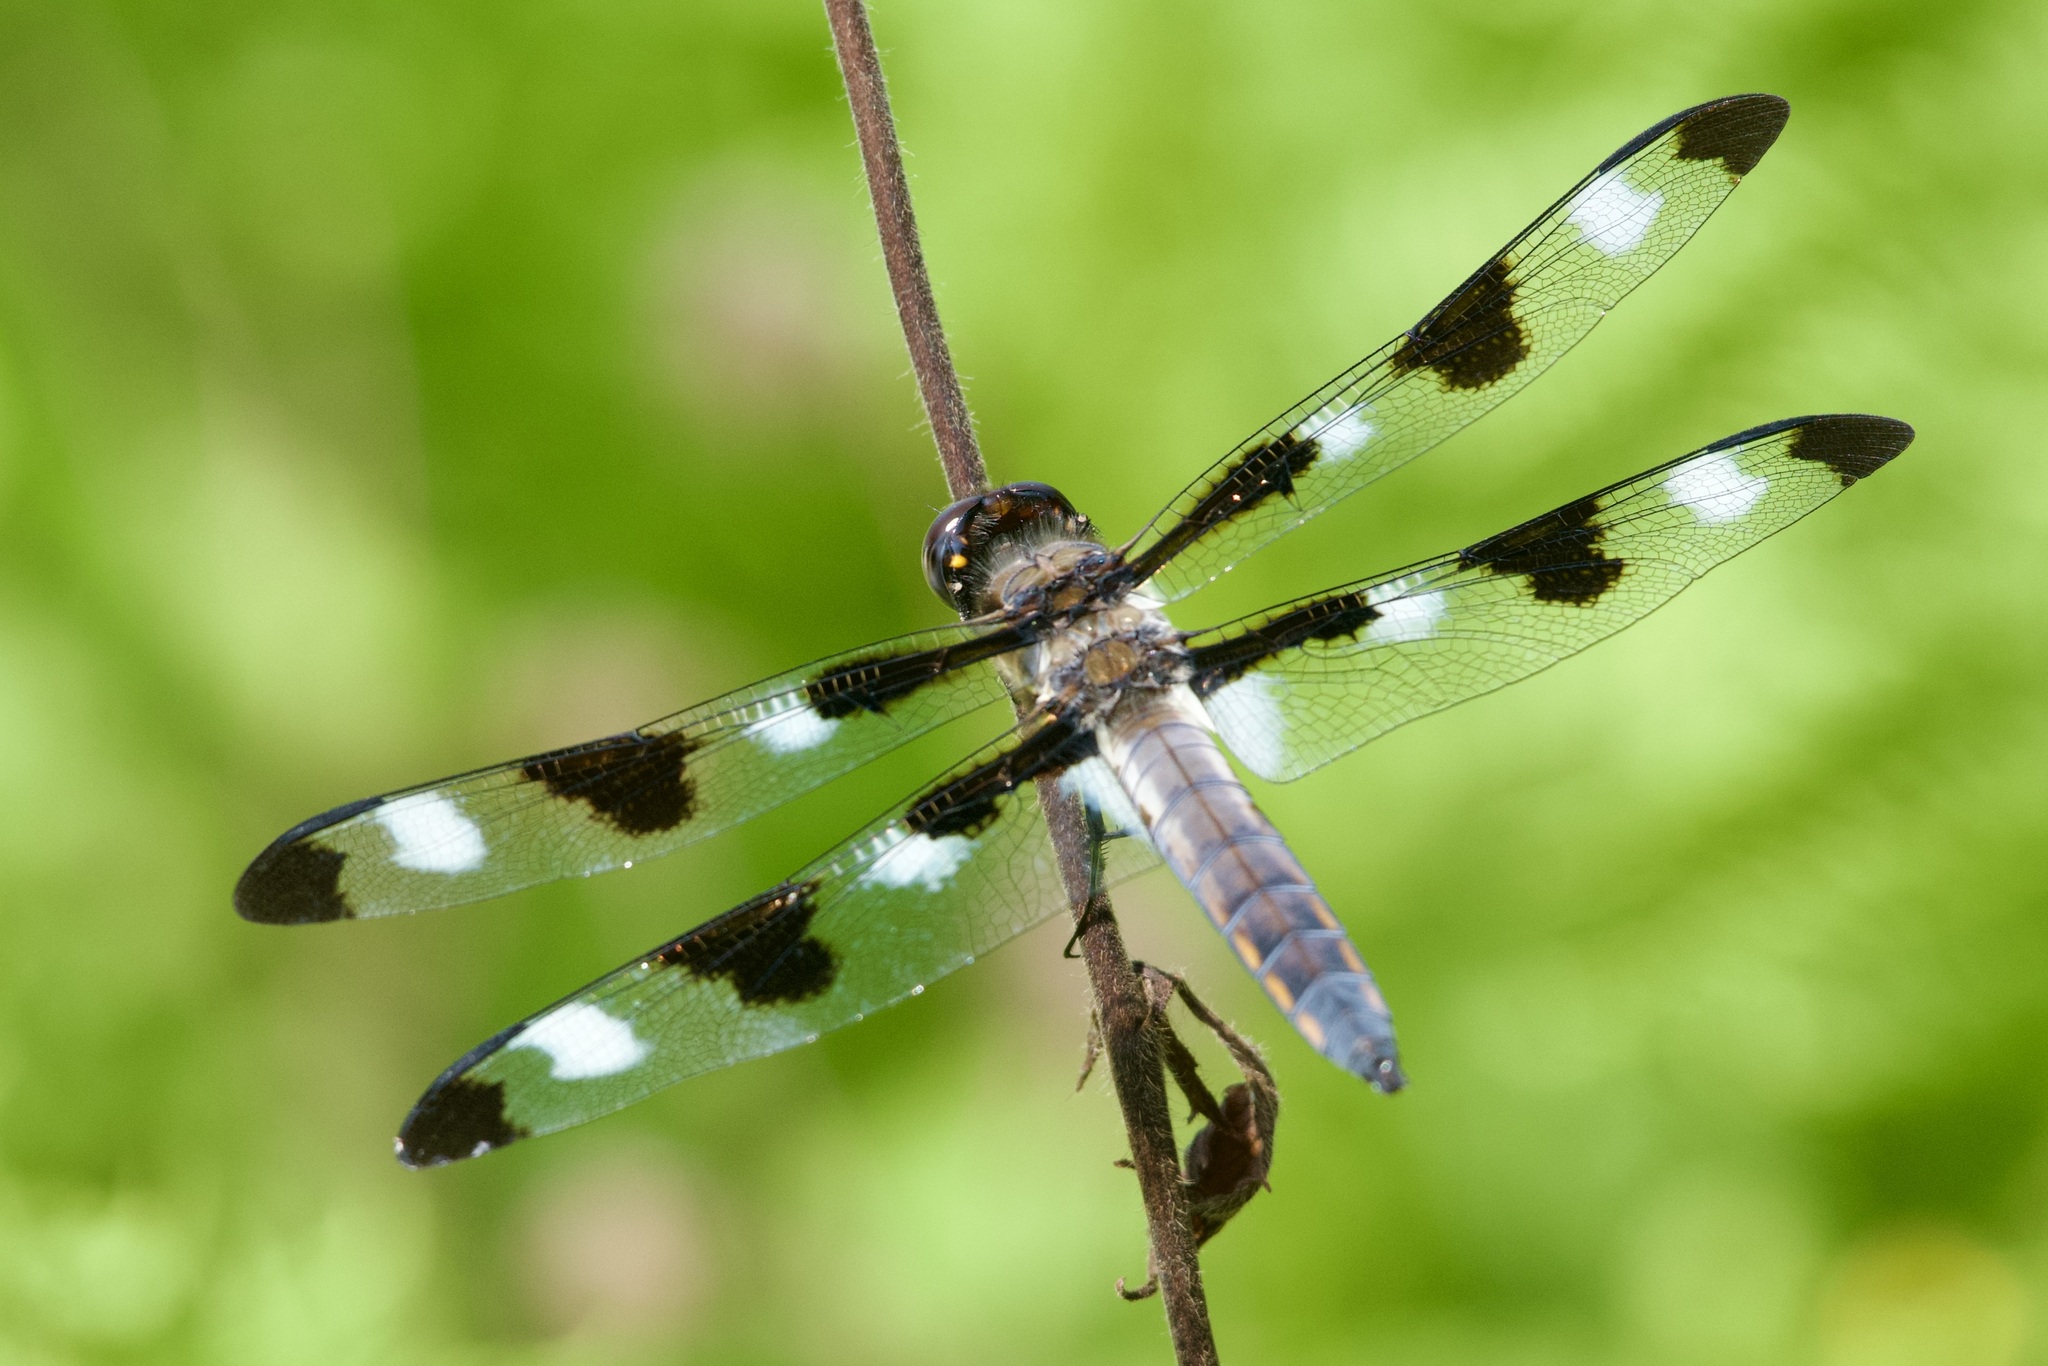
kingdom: Animalia
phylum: Arthropoda
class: Insecta
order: Odonata
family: Libellulidae
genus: Libellula
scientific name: Libellula pulchella
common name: Twelve-spotted skimmer
